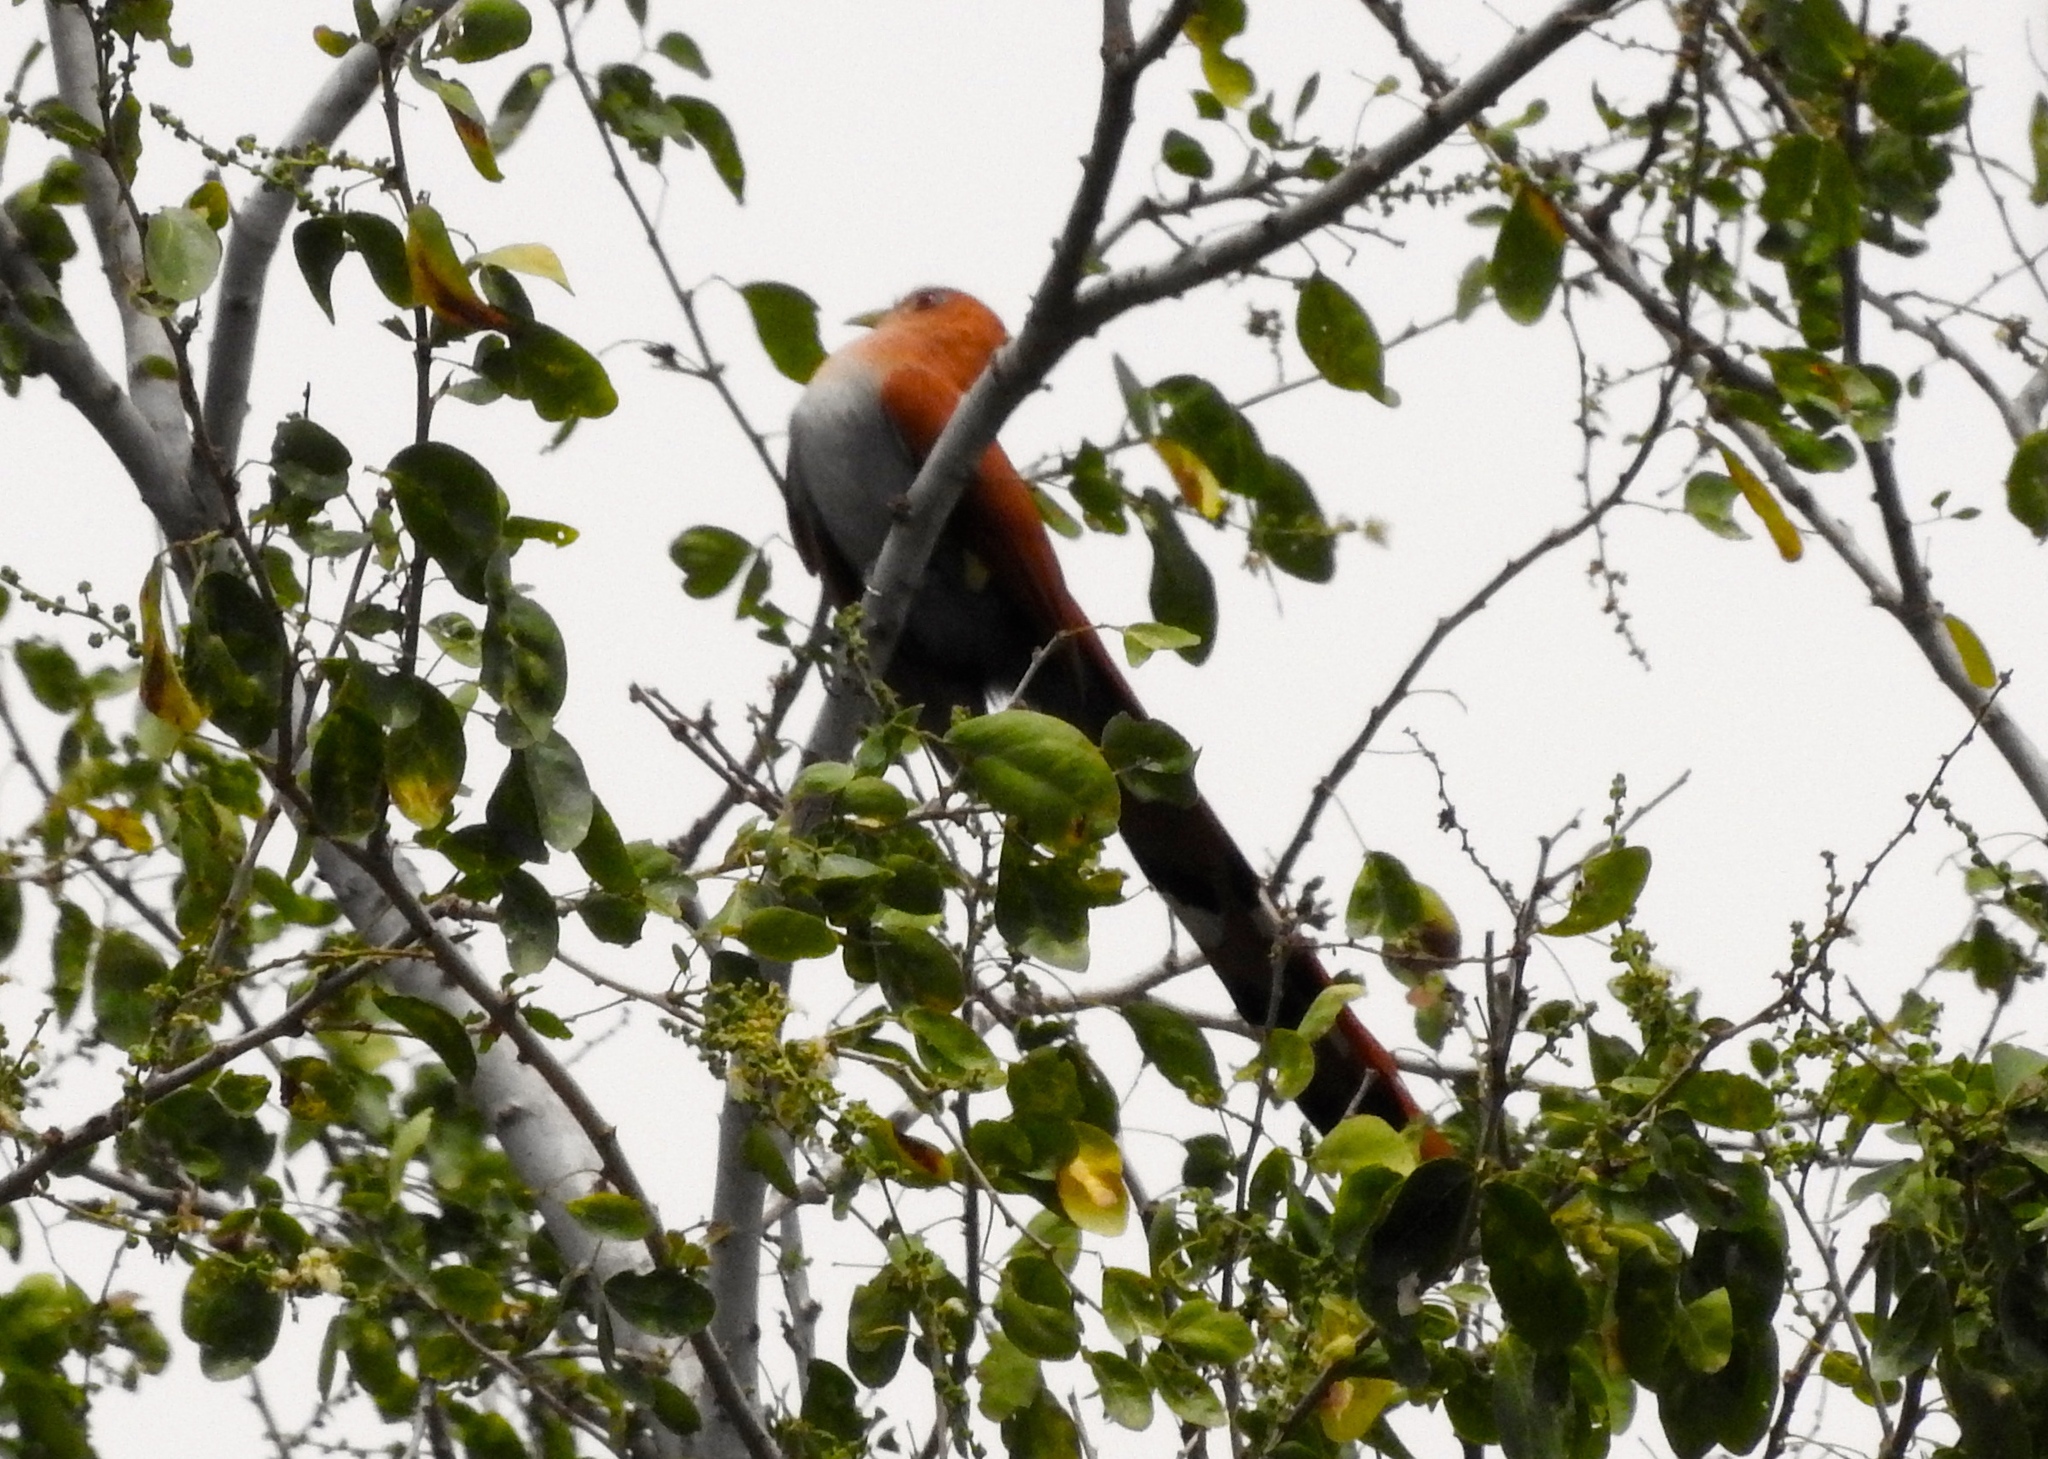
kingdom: Animalia
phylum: Chordata
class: Aves
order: Cuculiformes
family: Cuculidae
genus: Piaya
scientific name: Piaya cayana
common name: Squirrel cuckoo
